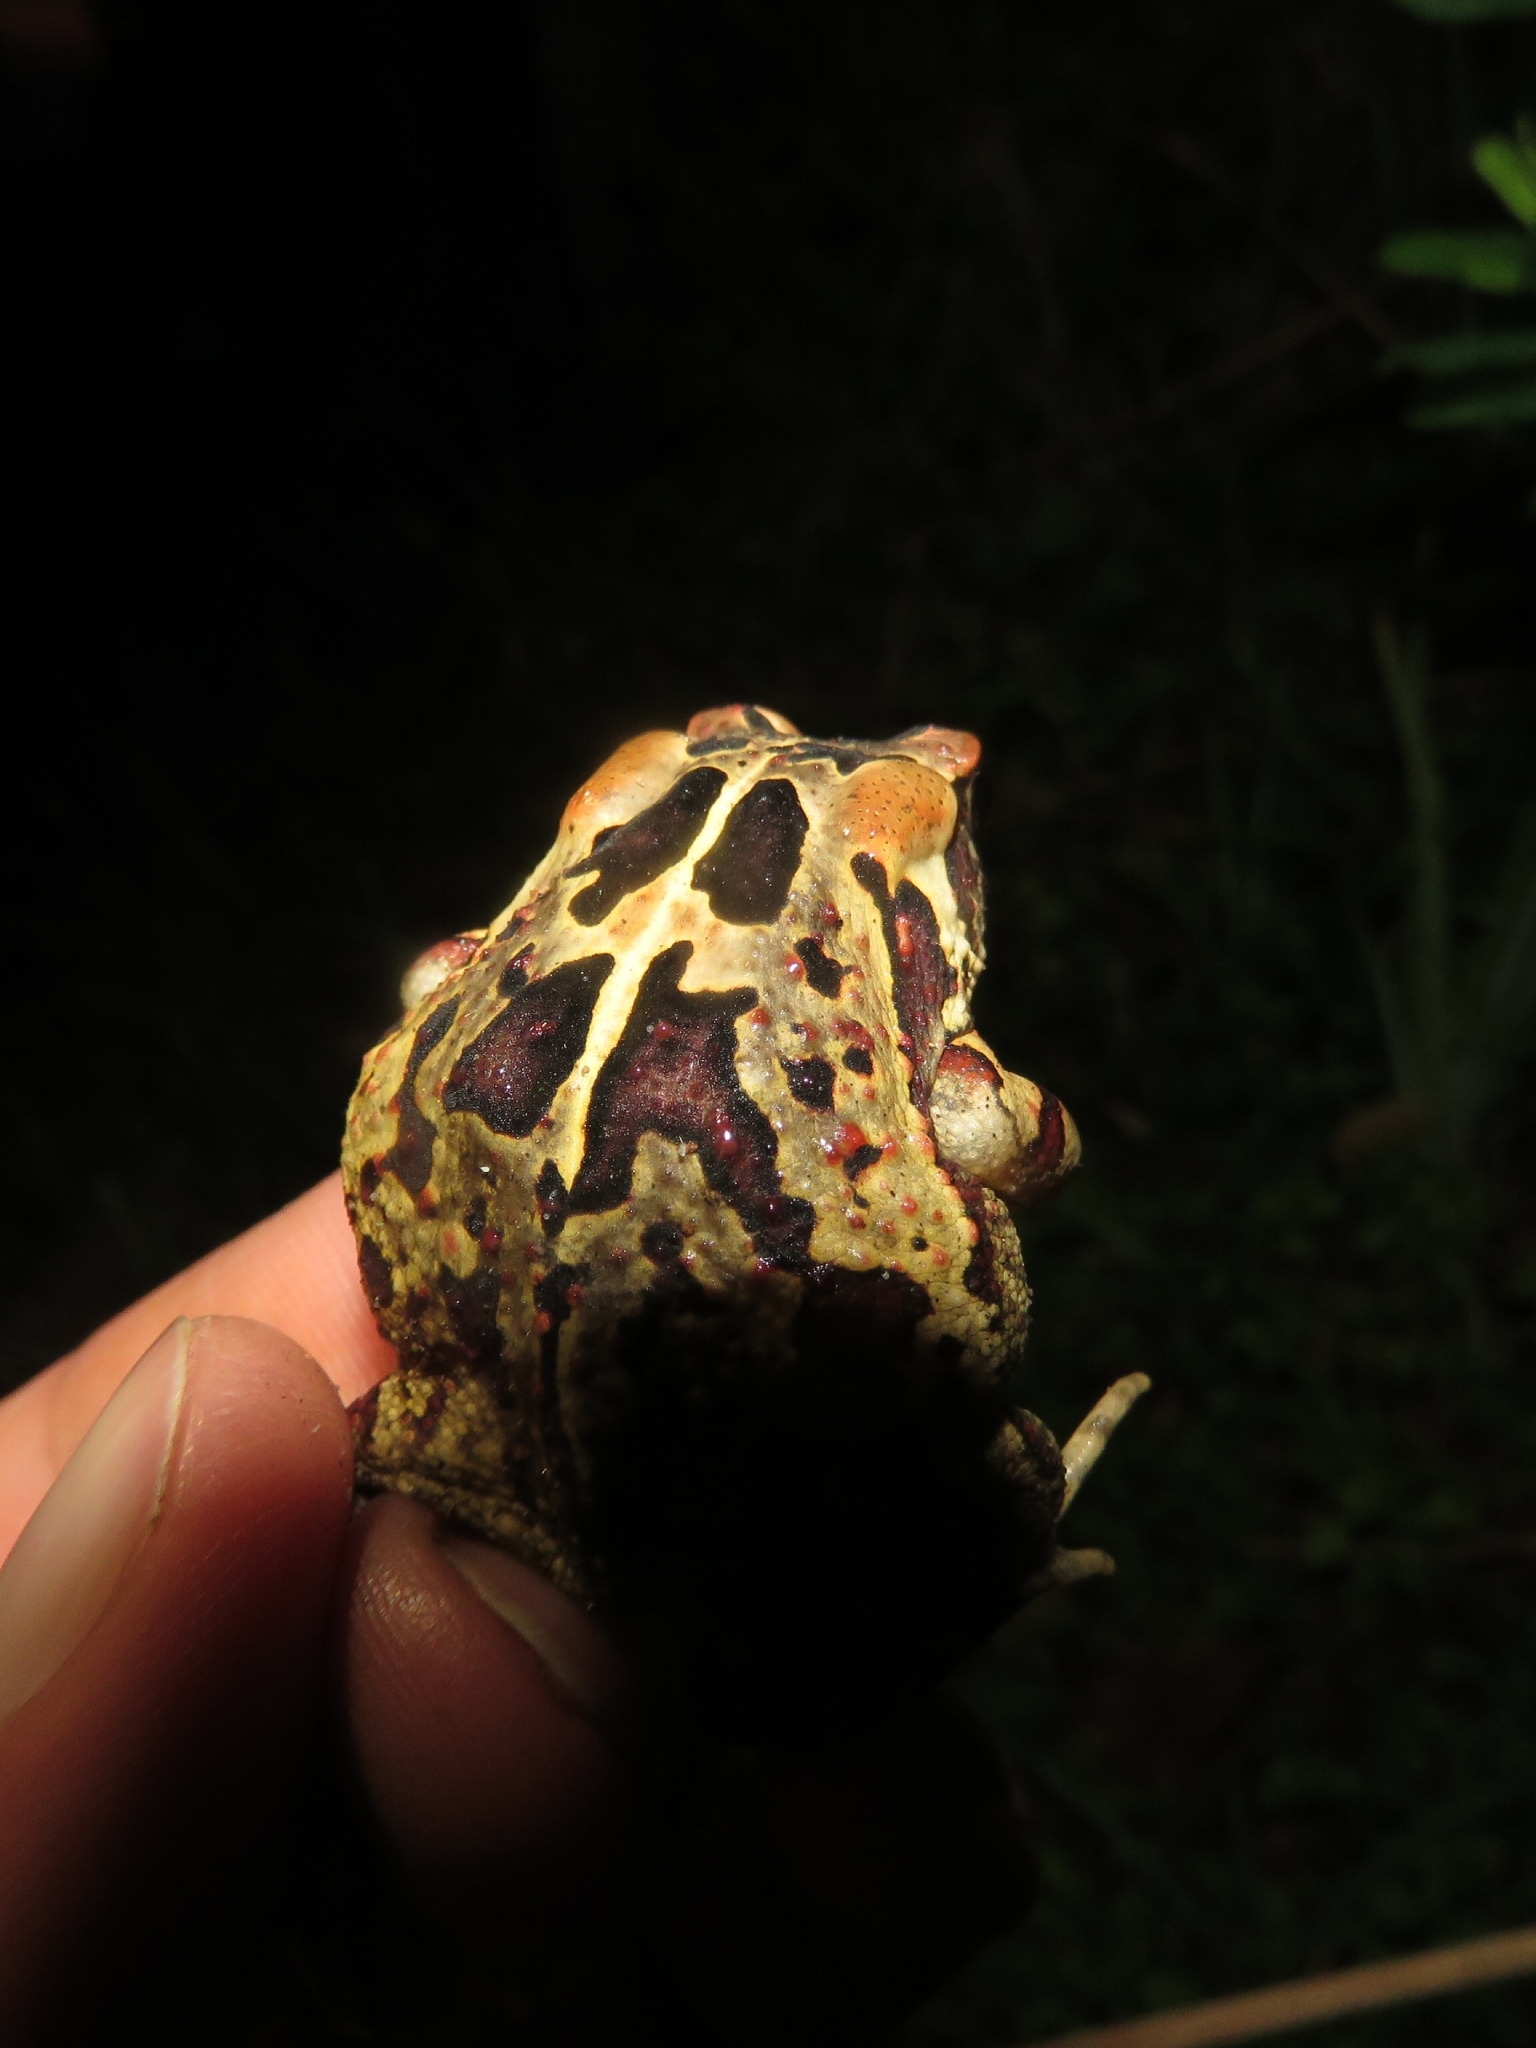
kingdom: Animalia
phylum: Chordata
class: Amphibia
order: Anura
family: Bufonidae
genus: Sclerophrys
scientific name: Sclerophrys pardalis
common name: Eastern leopard toad
